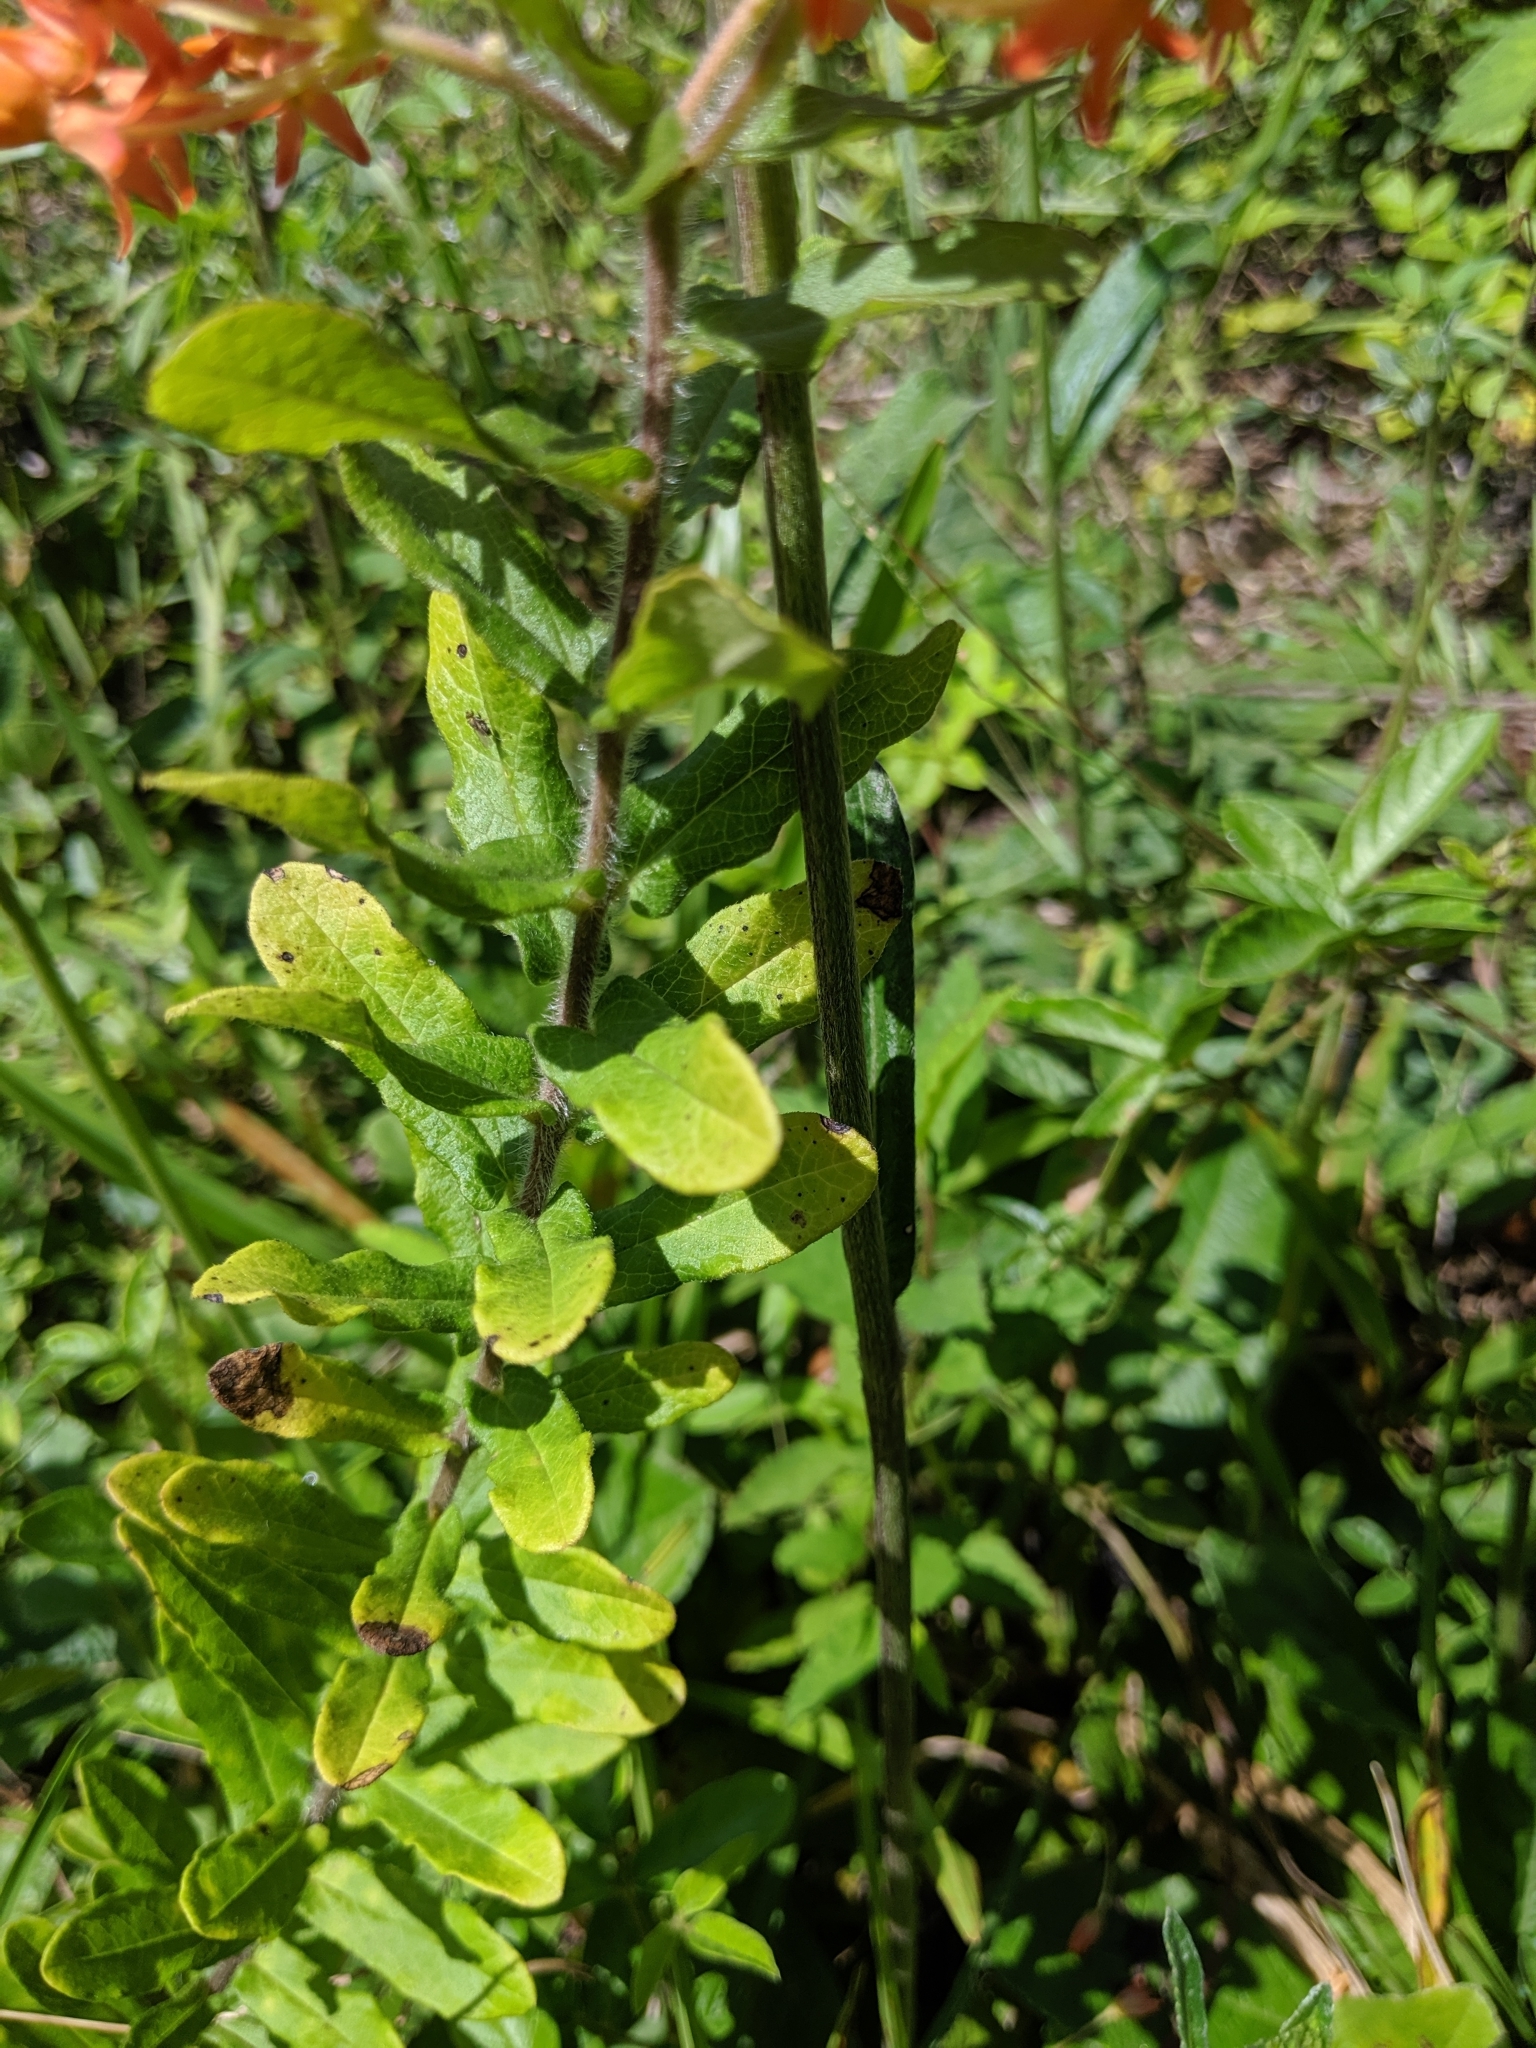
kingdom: Plantae
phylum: Tracheophyta
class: Magnoliopsida
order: Gentianales
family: Apocynaceae
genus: Asclepias
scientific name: Asclepias tuberosa
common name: Butterfly milkweed
